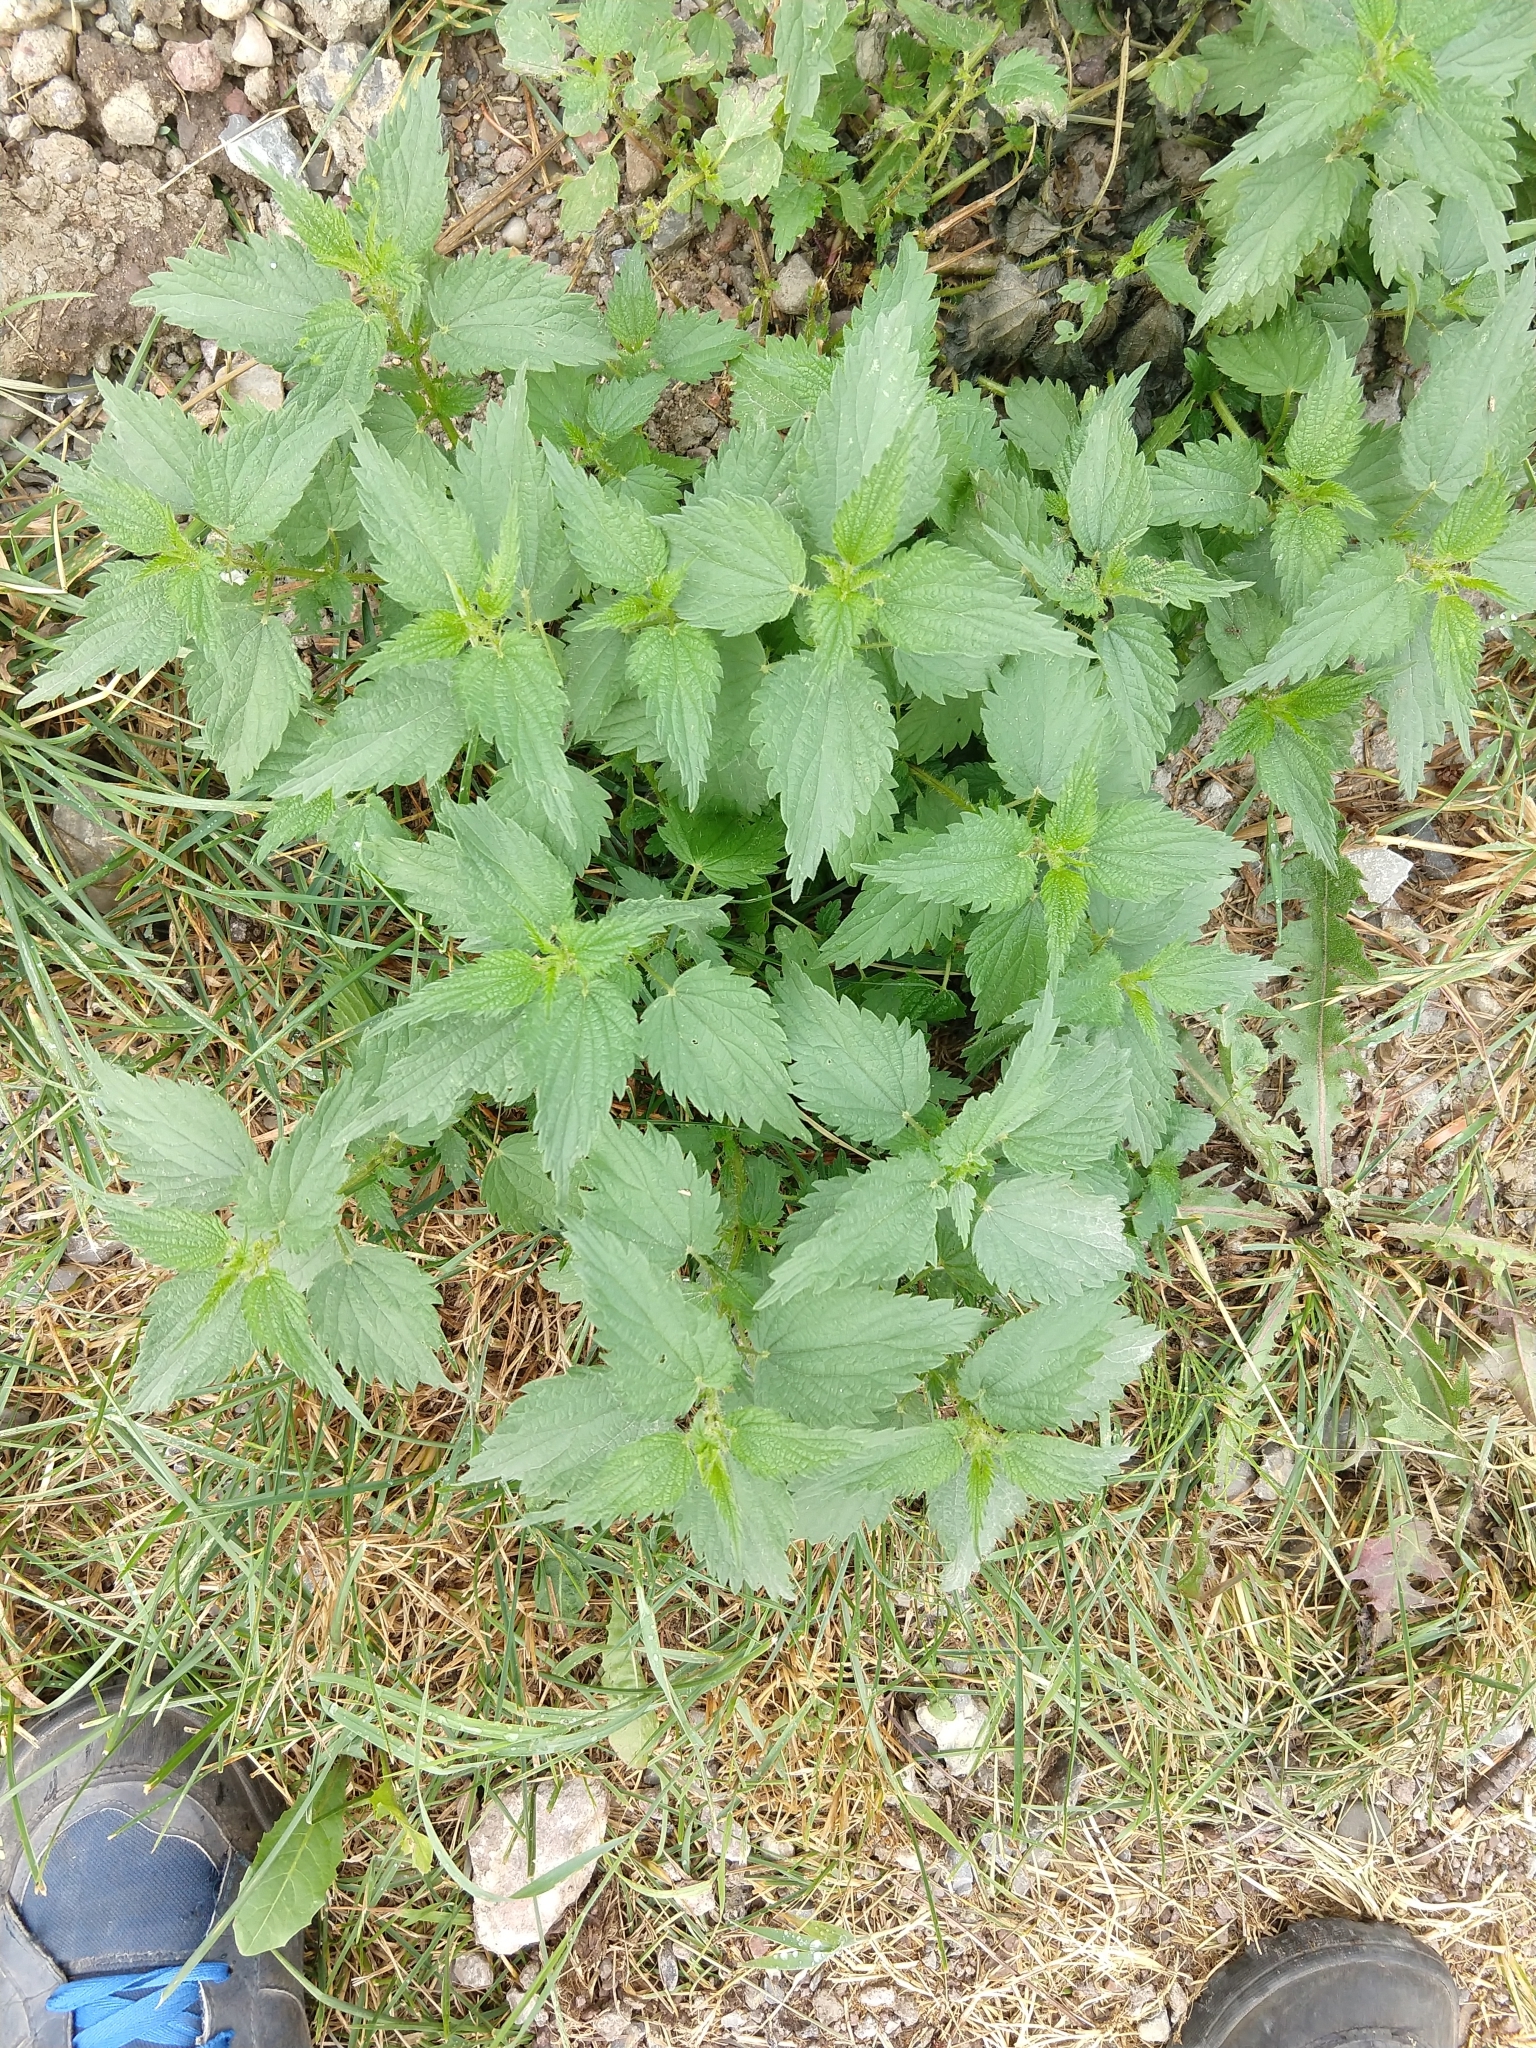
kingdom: Plantae
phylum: Tracheophyta
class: Magnoliopsida
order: Rosales
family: Urticaceae
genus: Urtica
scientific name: Urtica dioica
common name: Common nettle
